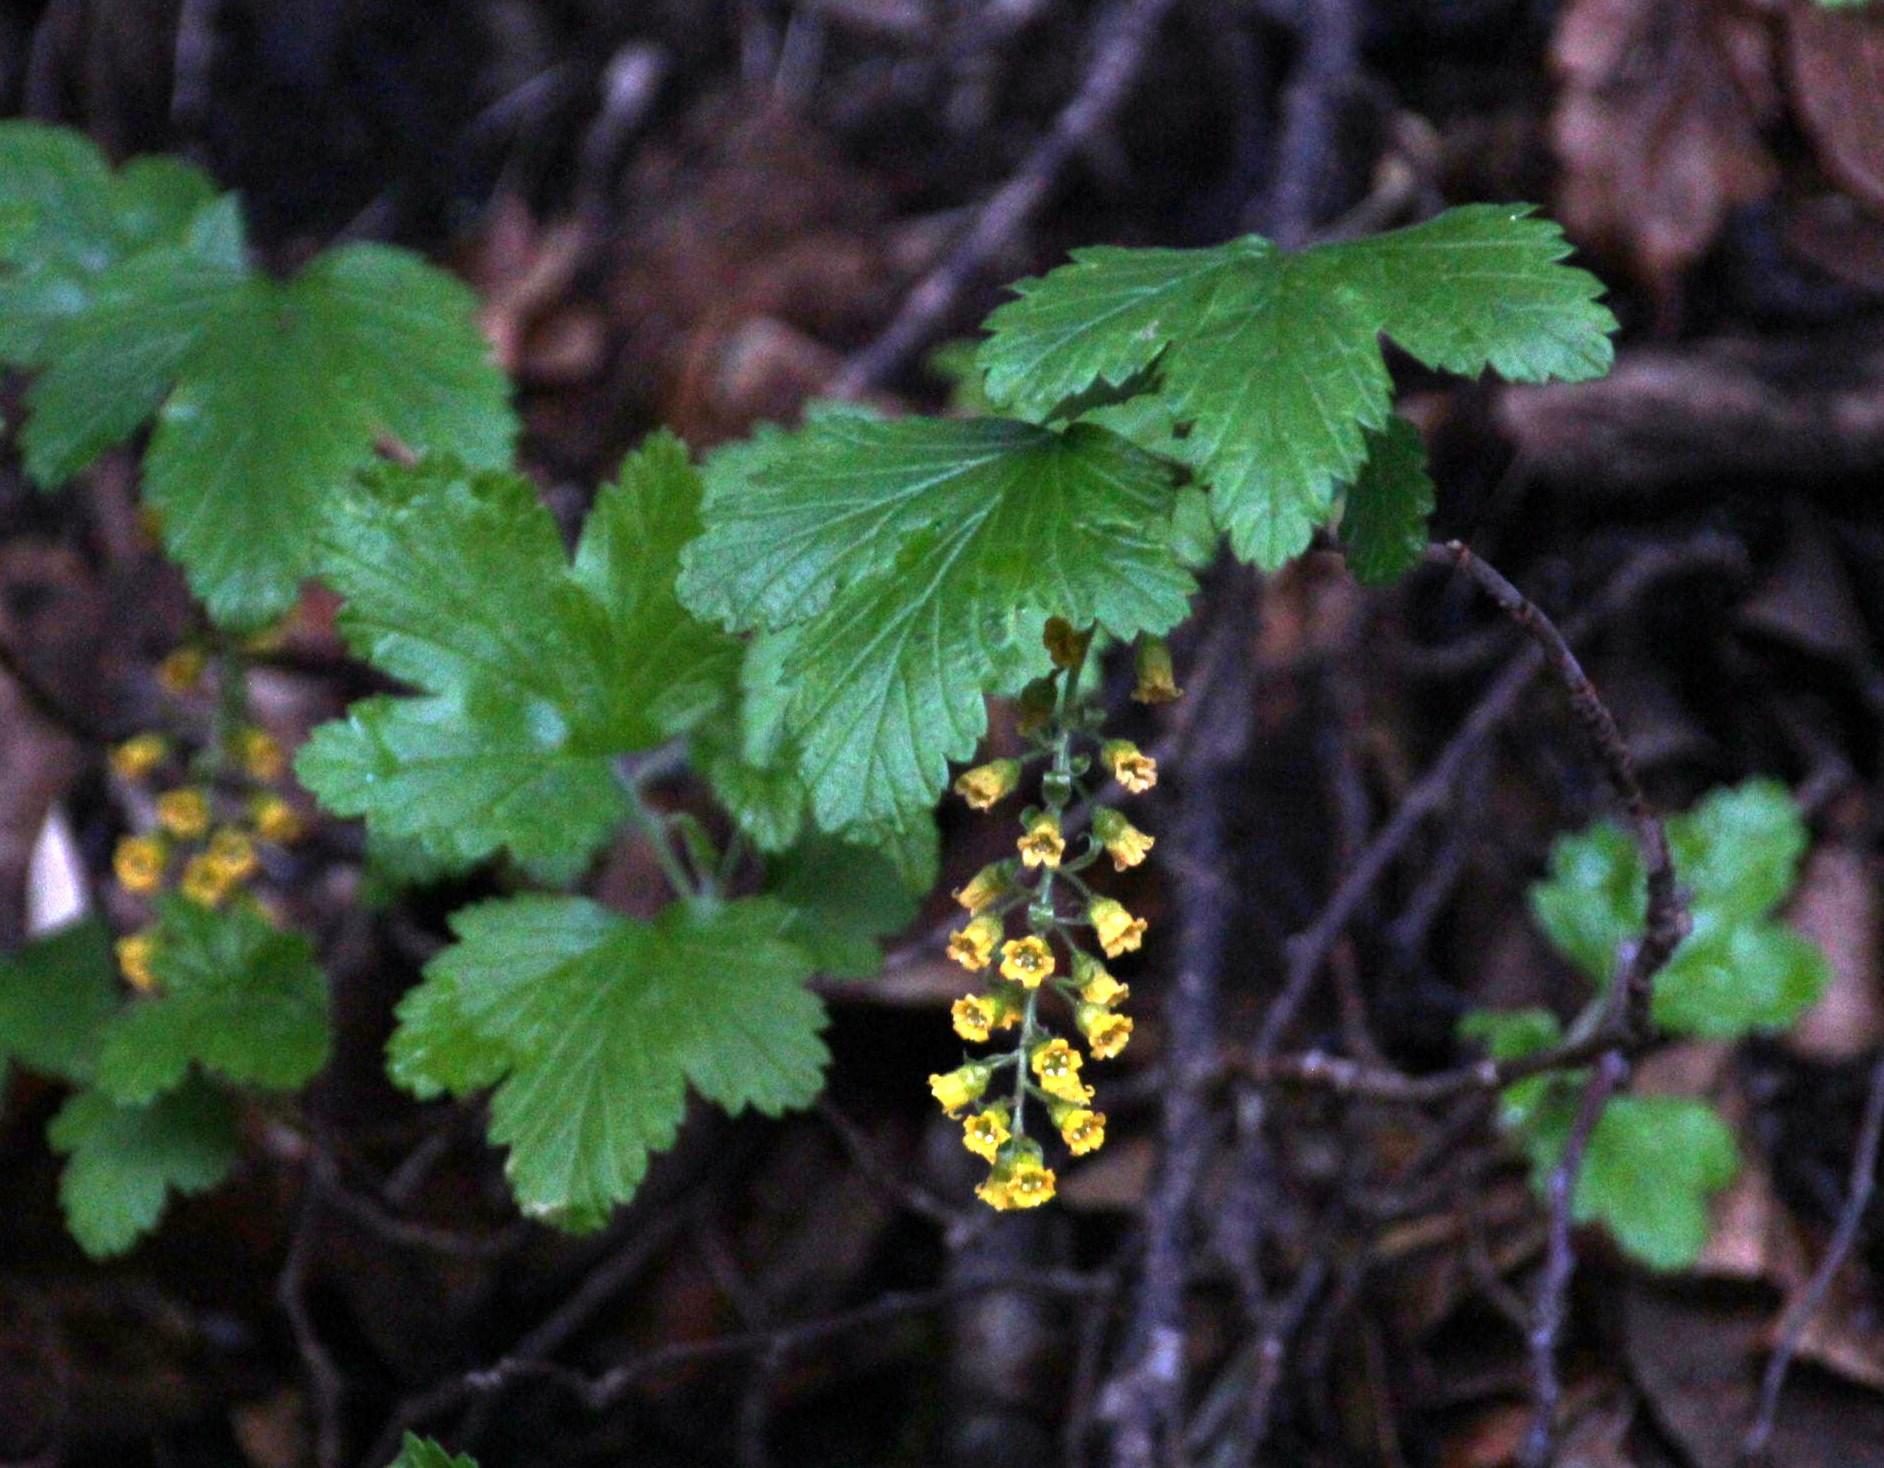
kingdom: Plantae
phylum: Tracheophyta
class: Magnoliopsida
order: Saxifragales
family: Grossulariaceae
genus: Ribes
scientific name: Ribes magellanicum
